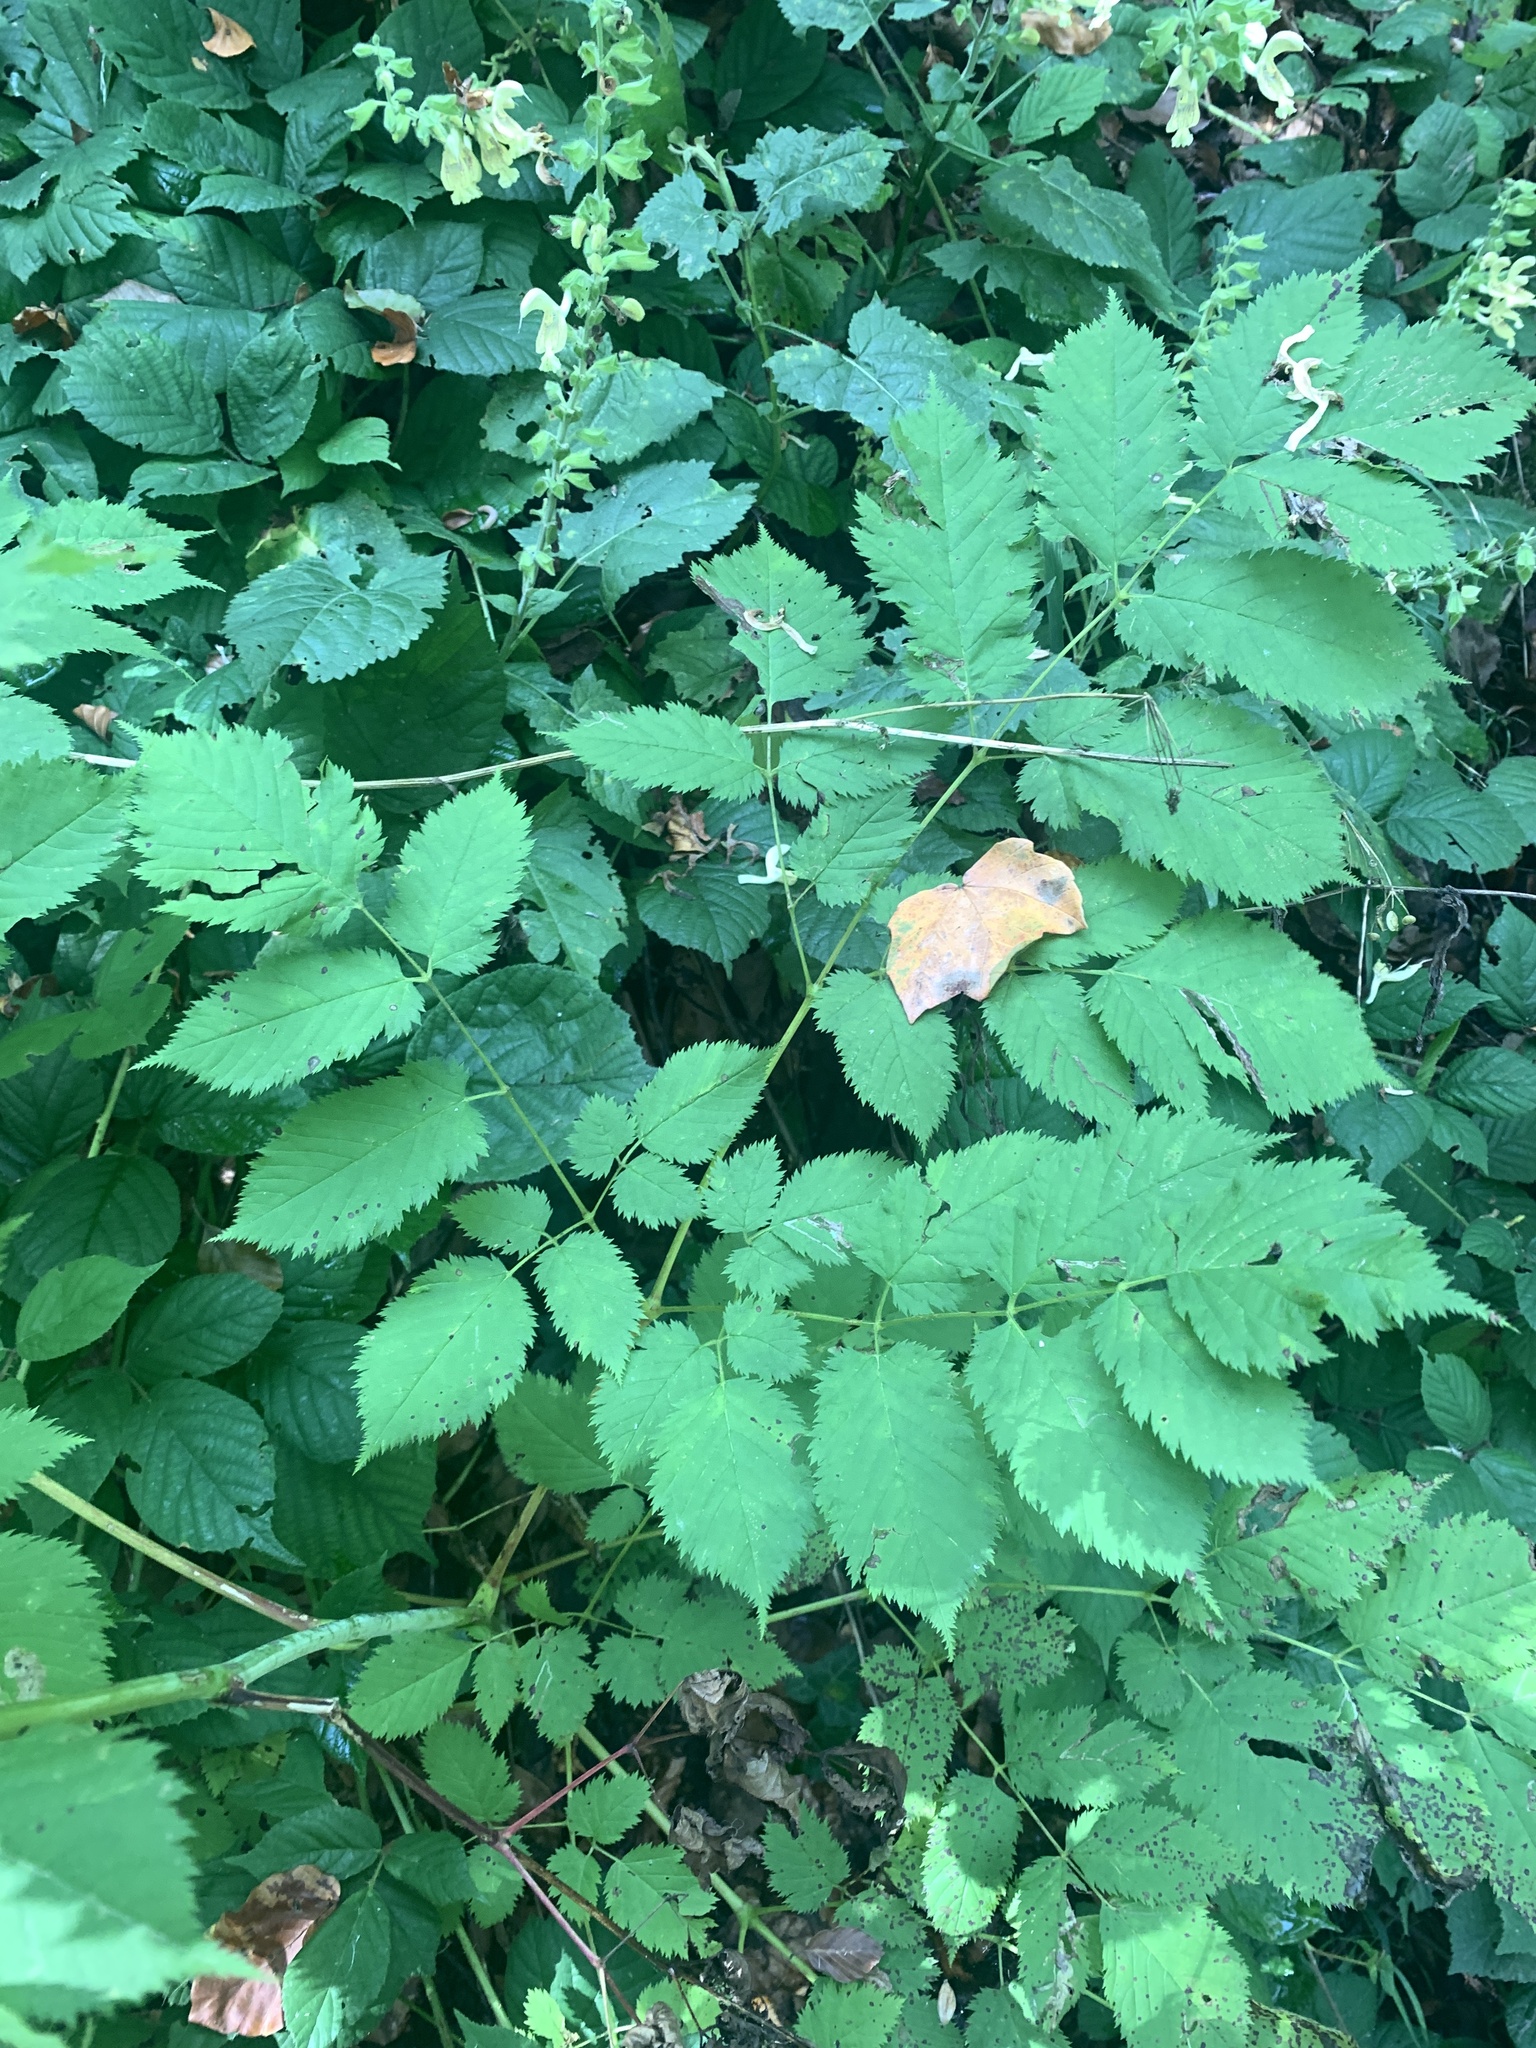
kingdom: Plantae
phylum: Tracheophyta
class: Magnoliopsida
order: Rosales
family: Rosaceae
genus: Aruncus
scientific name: Aruncus dioicus
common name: Buck's-beard
